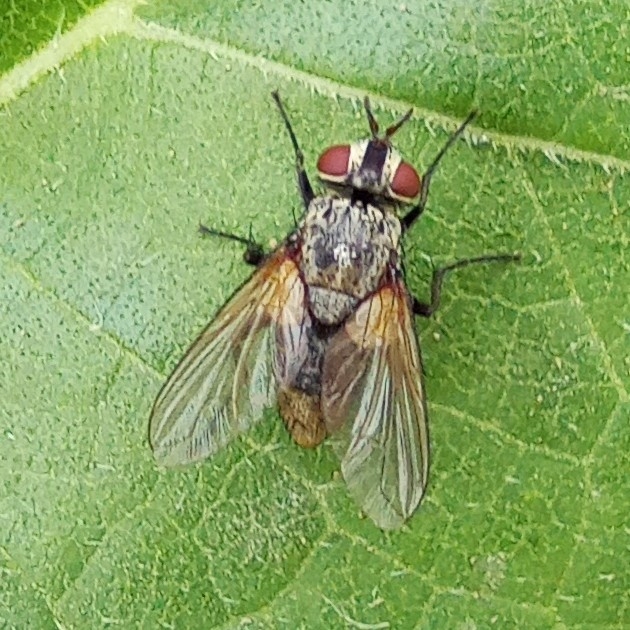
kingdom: Animalia
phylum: Arthropoda
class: Insecta
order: Diptera
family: Tachinidae
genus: Erythrocera
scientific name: Erythrocera nigripes
